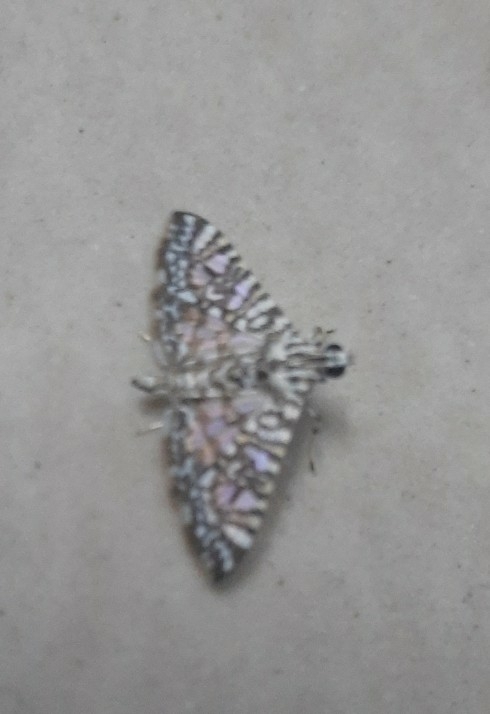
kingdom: Animalia
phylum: Arthropoda
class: Insecta
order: Lepidoptera
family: Crambidae
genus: Glyphodes
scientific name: Glyphodes onychinalis
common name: Swan plant moth
